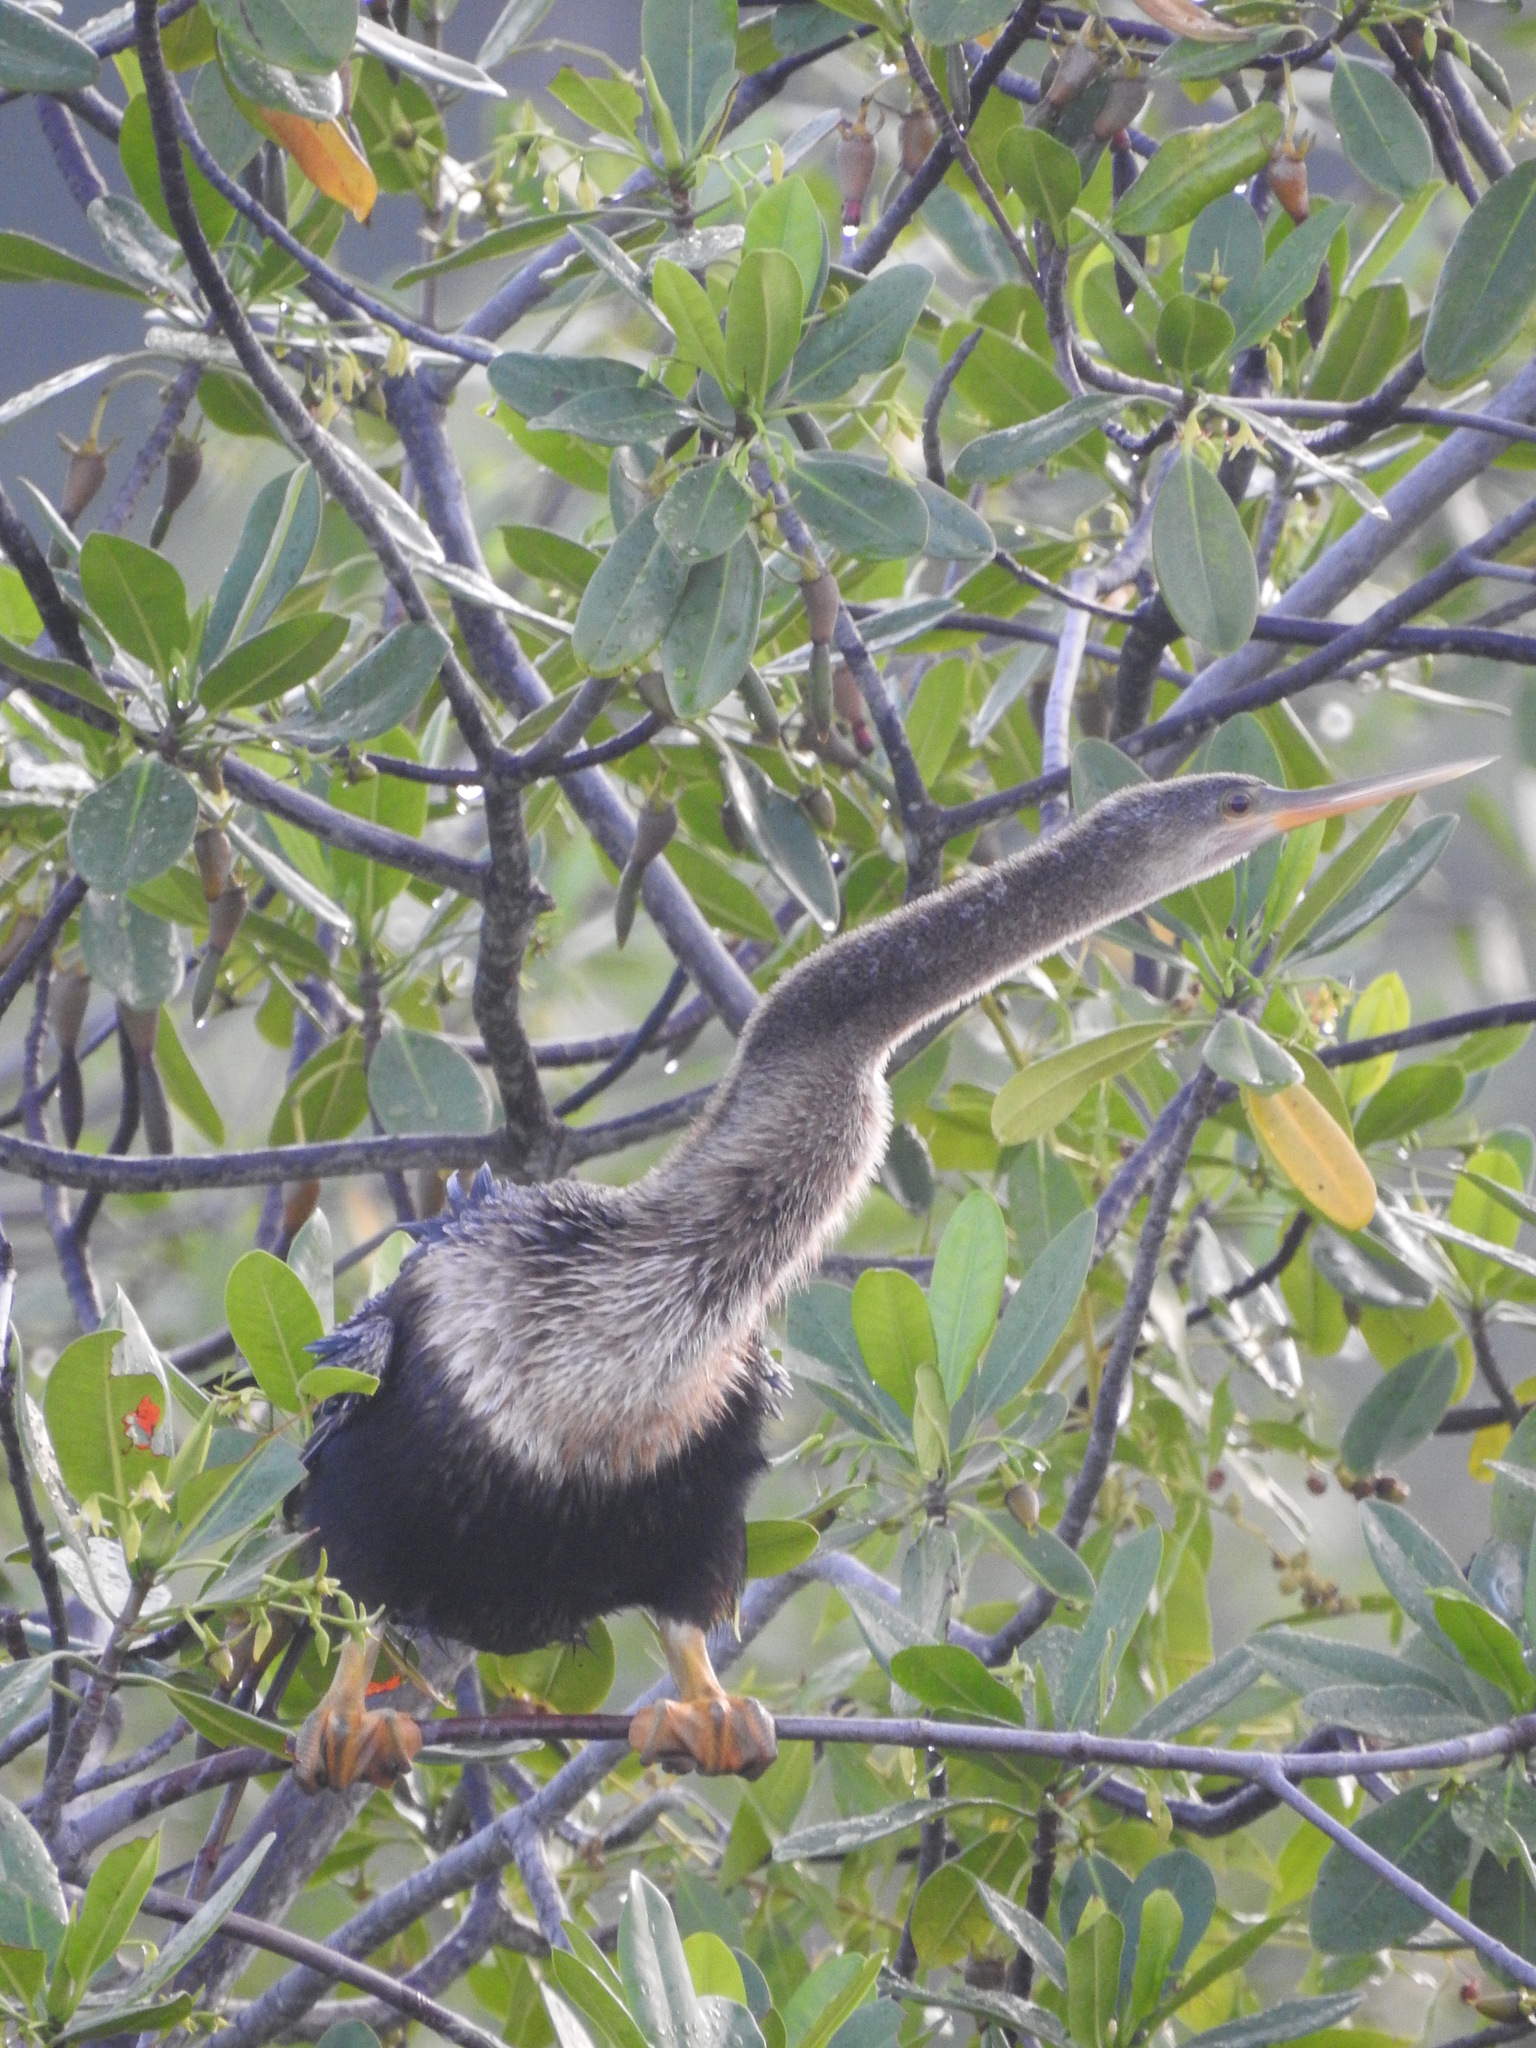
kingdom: Animalia
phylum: Chordata
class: Aves
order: Suliformes
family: Anhingidae
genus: Anhinga
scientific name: Anhinga anhinga
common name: Anhinga
